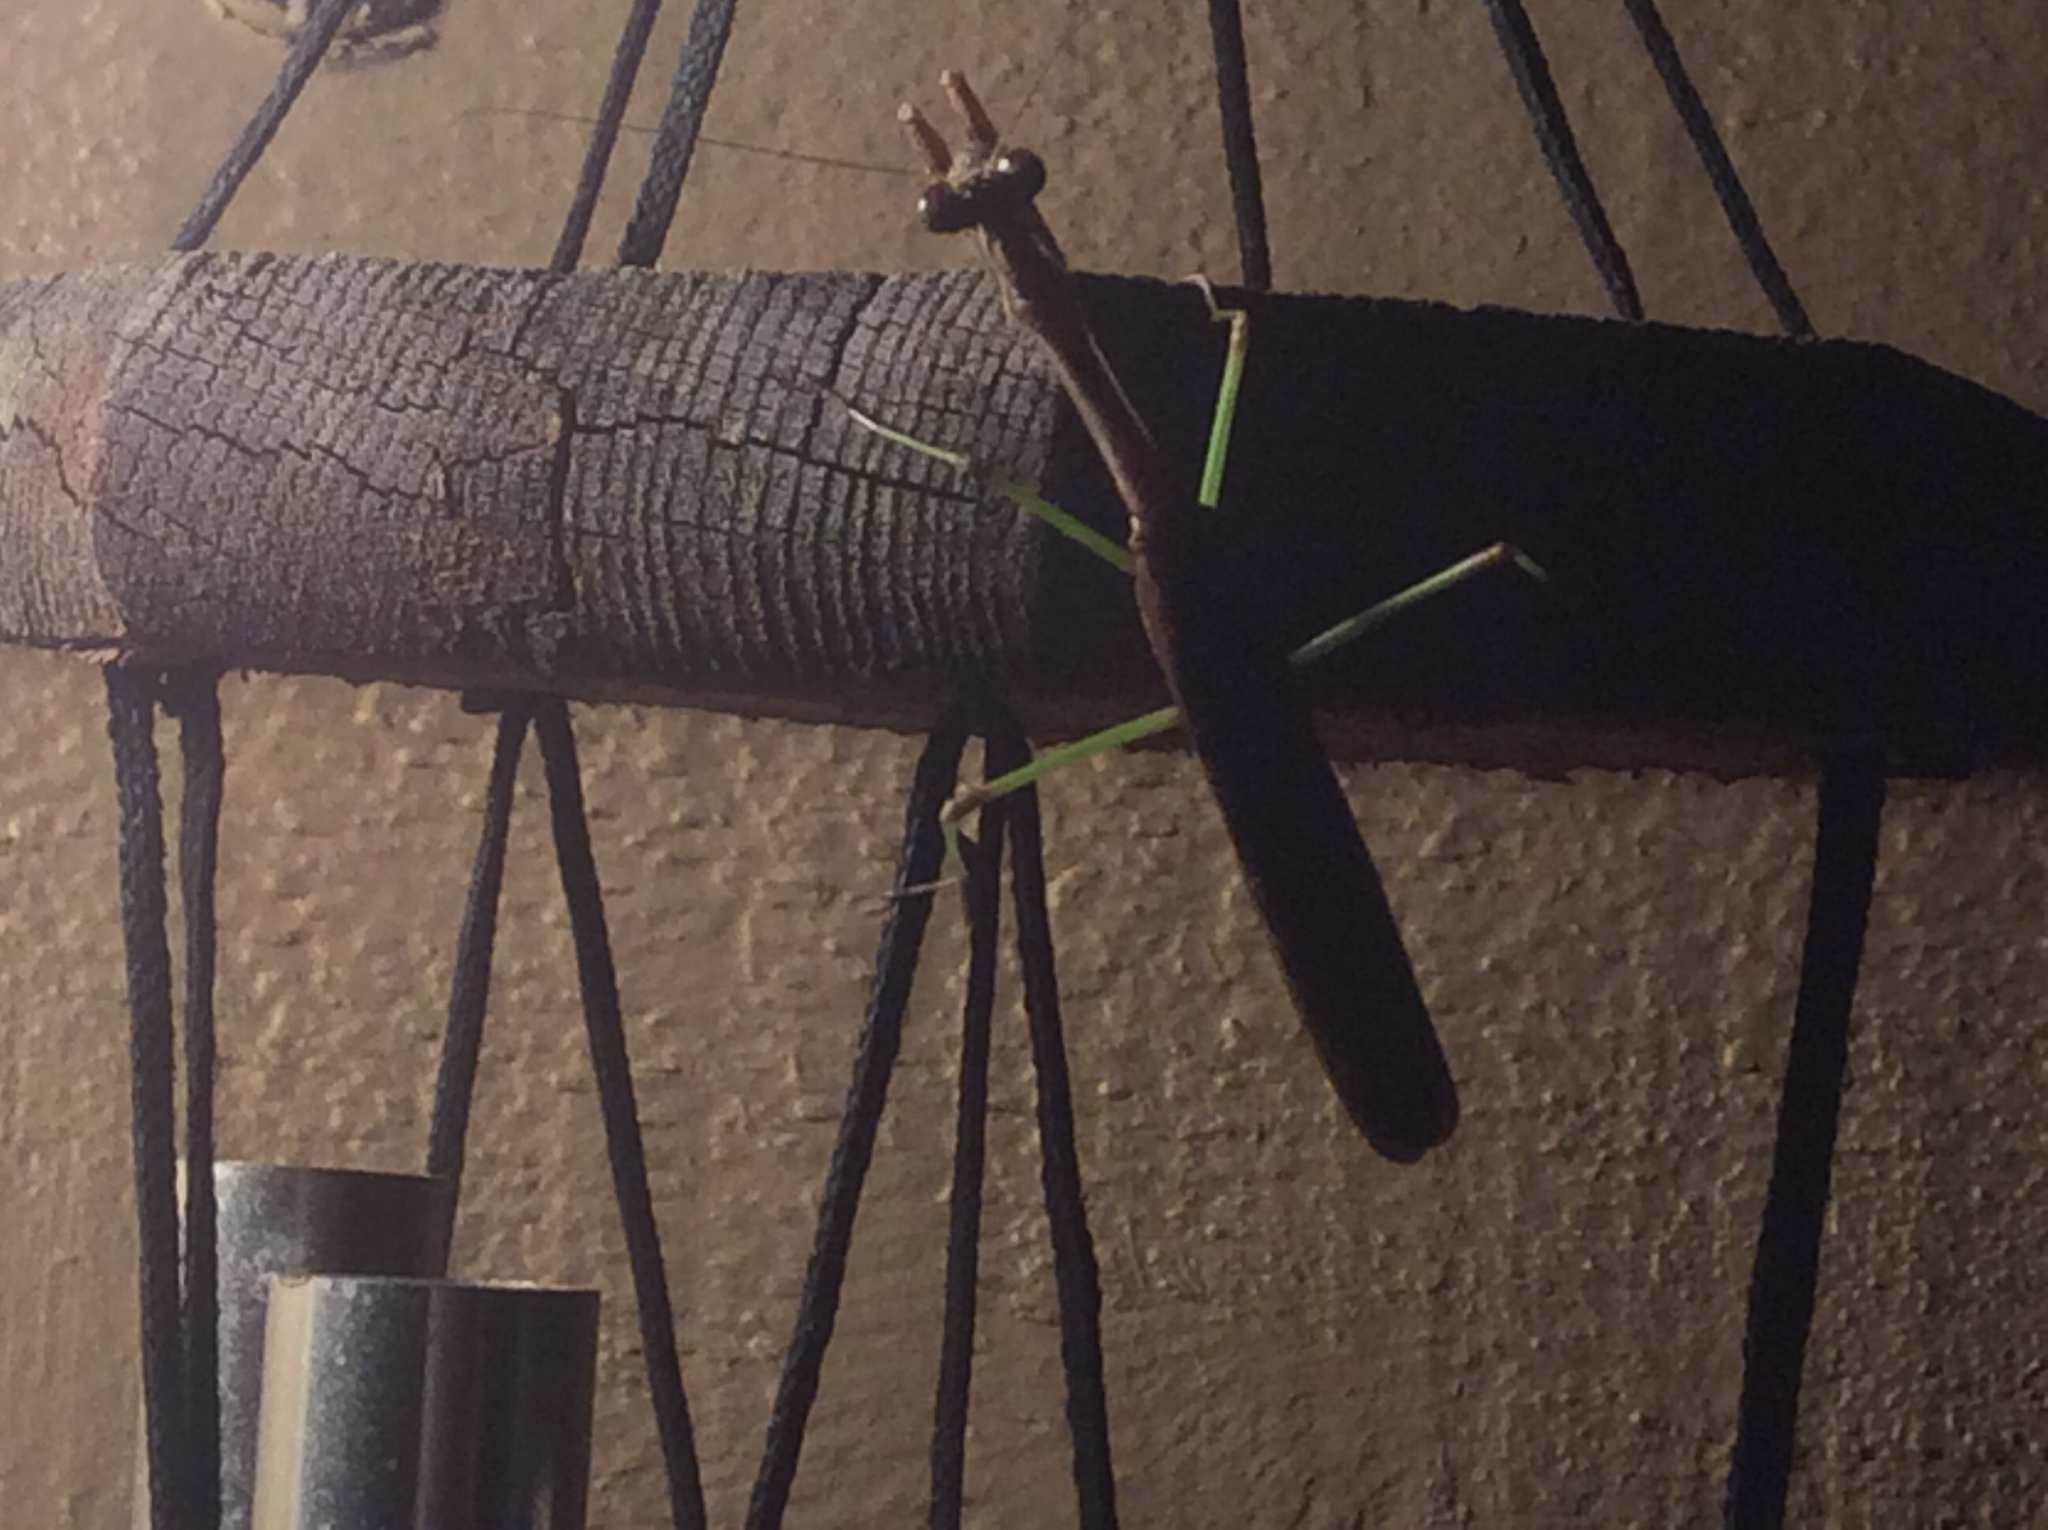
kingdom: Animalia
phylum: Arthropoda
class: Insecta
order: Mantodea
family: Mantidae
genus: Stagmomantis
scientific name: Stagmomantis carolina
